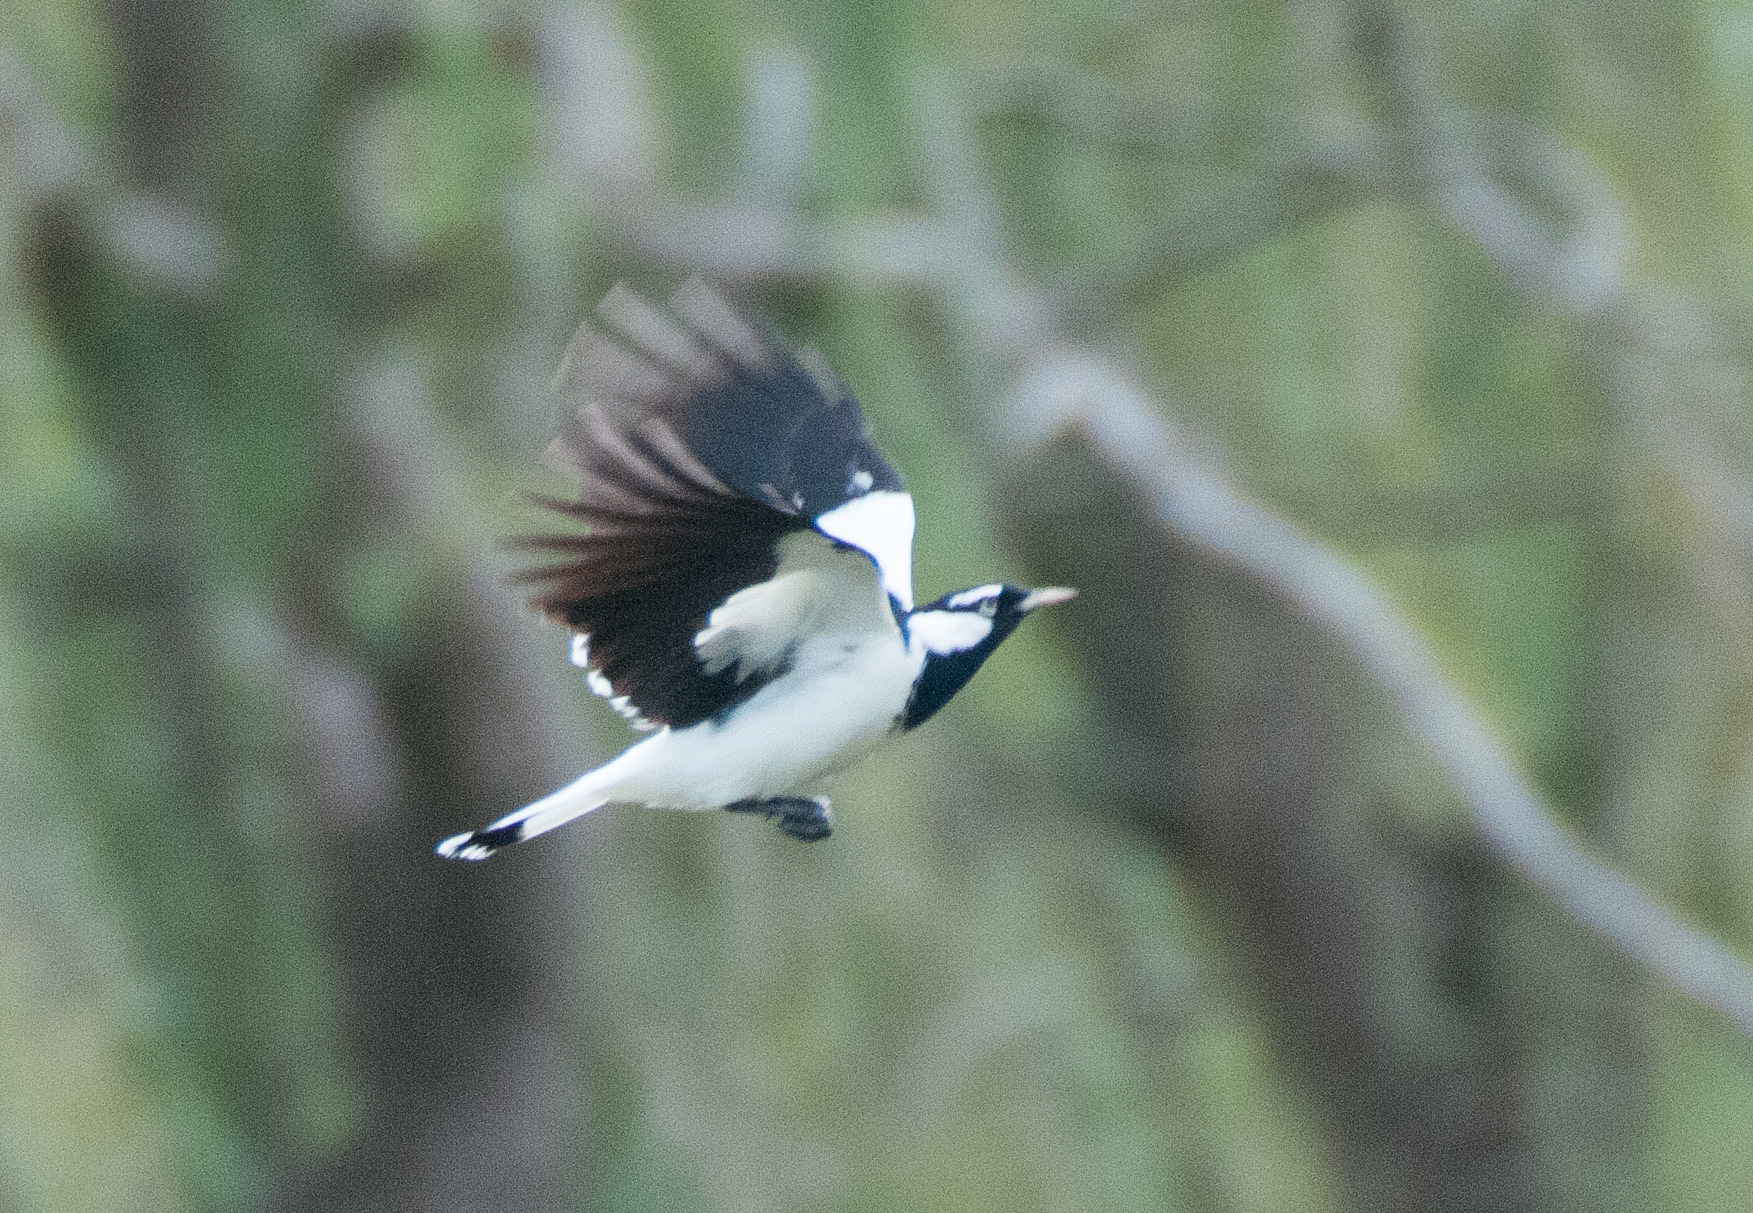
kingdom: Animalia
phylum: Chordata
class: Aves
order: Passeriformes
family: Monarchidae
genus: Grallina
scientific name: Grallina cyanoleuca
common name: Magpie-lark
